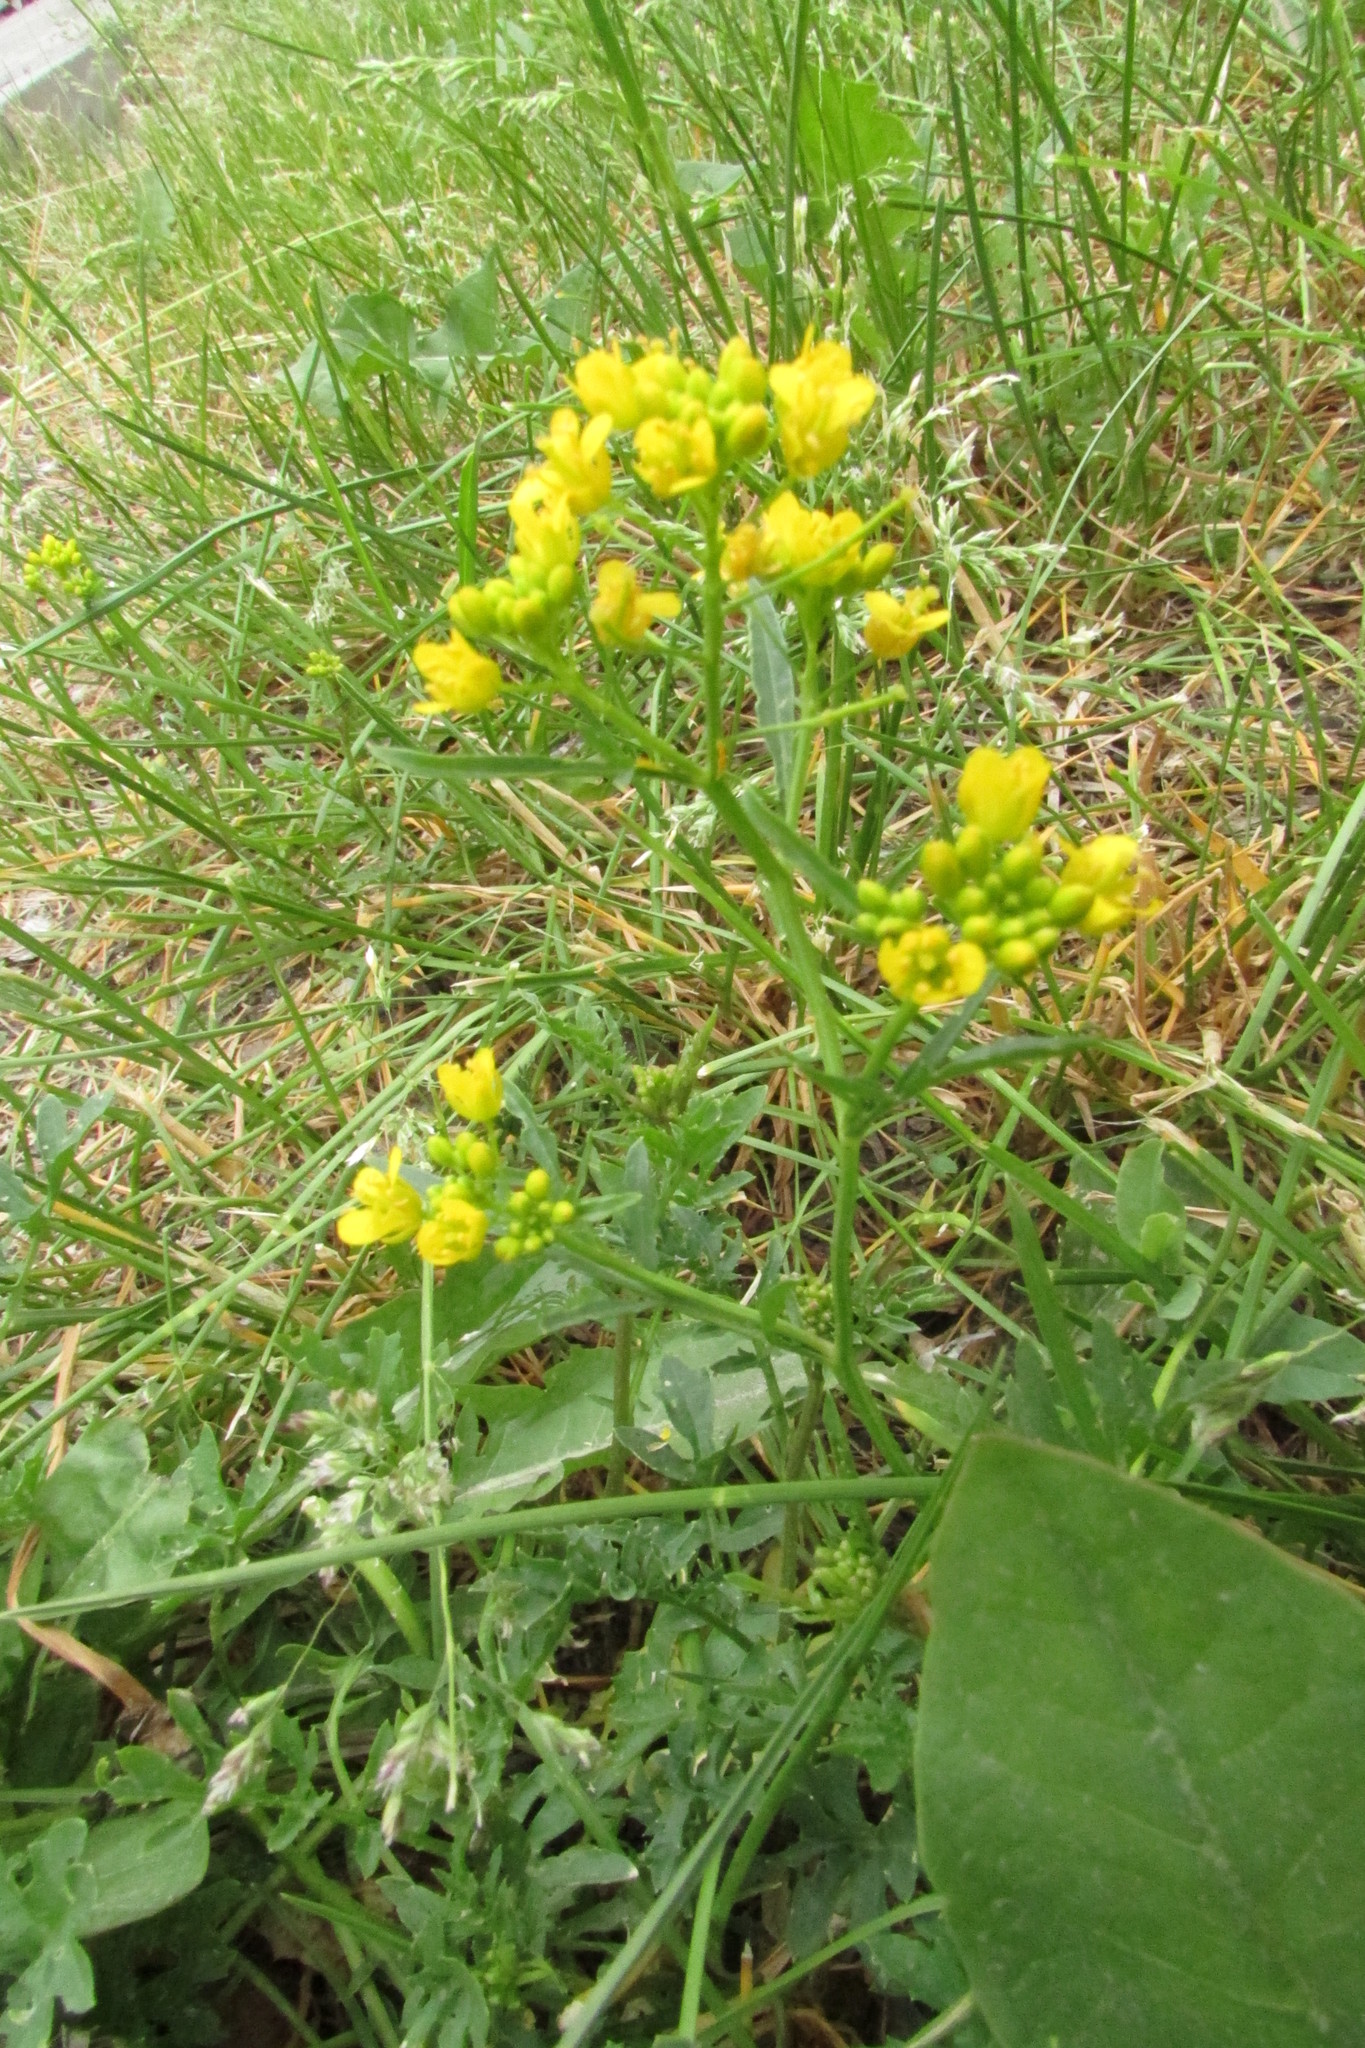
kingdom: Plantae
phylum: Tracheophyta
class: Magnoliopsida
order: Brassicales
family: Brassicaceae
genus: Rorippa
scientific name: Rorippa sylvestris
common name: Creeping yellowcress
